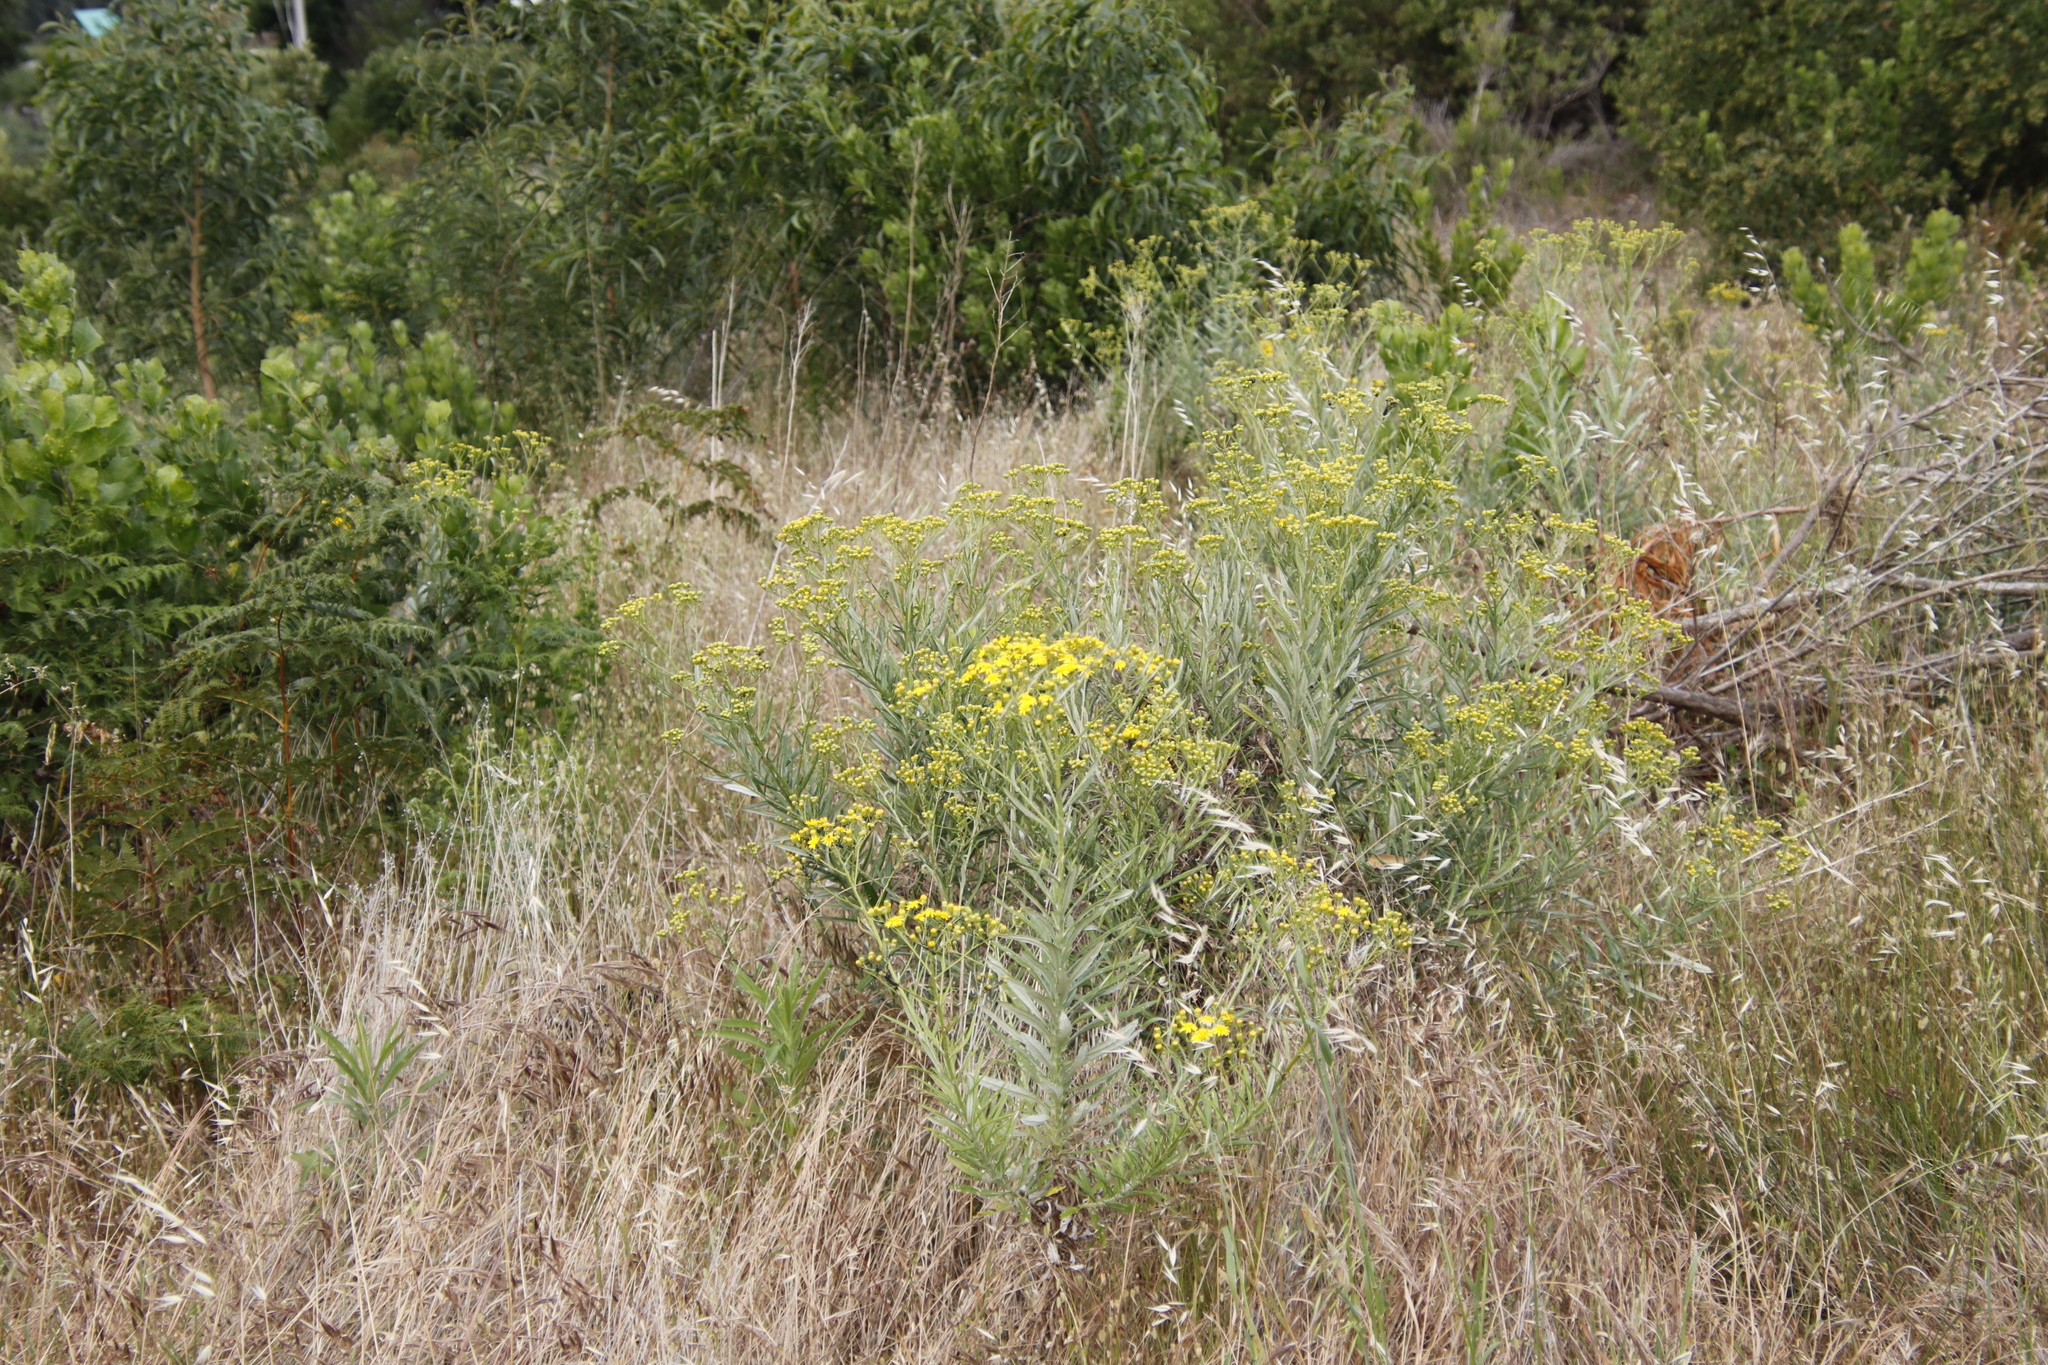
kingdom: Plantae
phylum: Tracheophyta
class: Magnoliopsida
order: Asterales
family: Asteraceae
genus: Senecio
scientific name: Senecio pterophorus
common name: Shoddy ragwort
